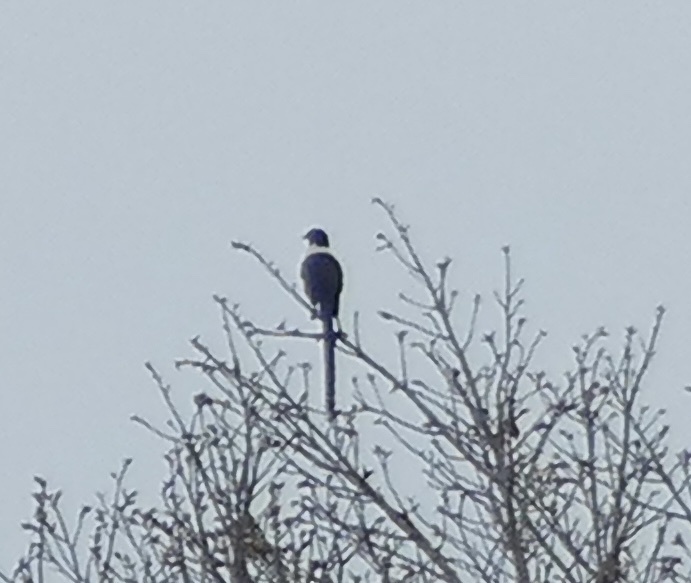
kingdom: Animalia
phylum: Chordata
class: Aves
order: Passeriformes
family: Sturnidae
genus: Streptocitta
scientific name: Streptocitta albicollis
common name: White-necked myna
